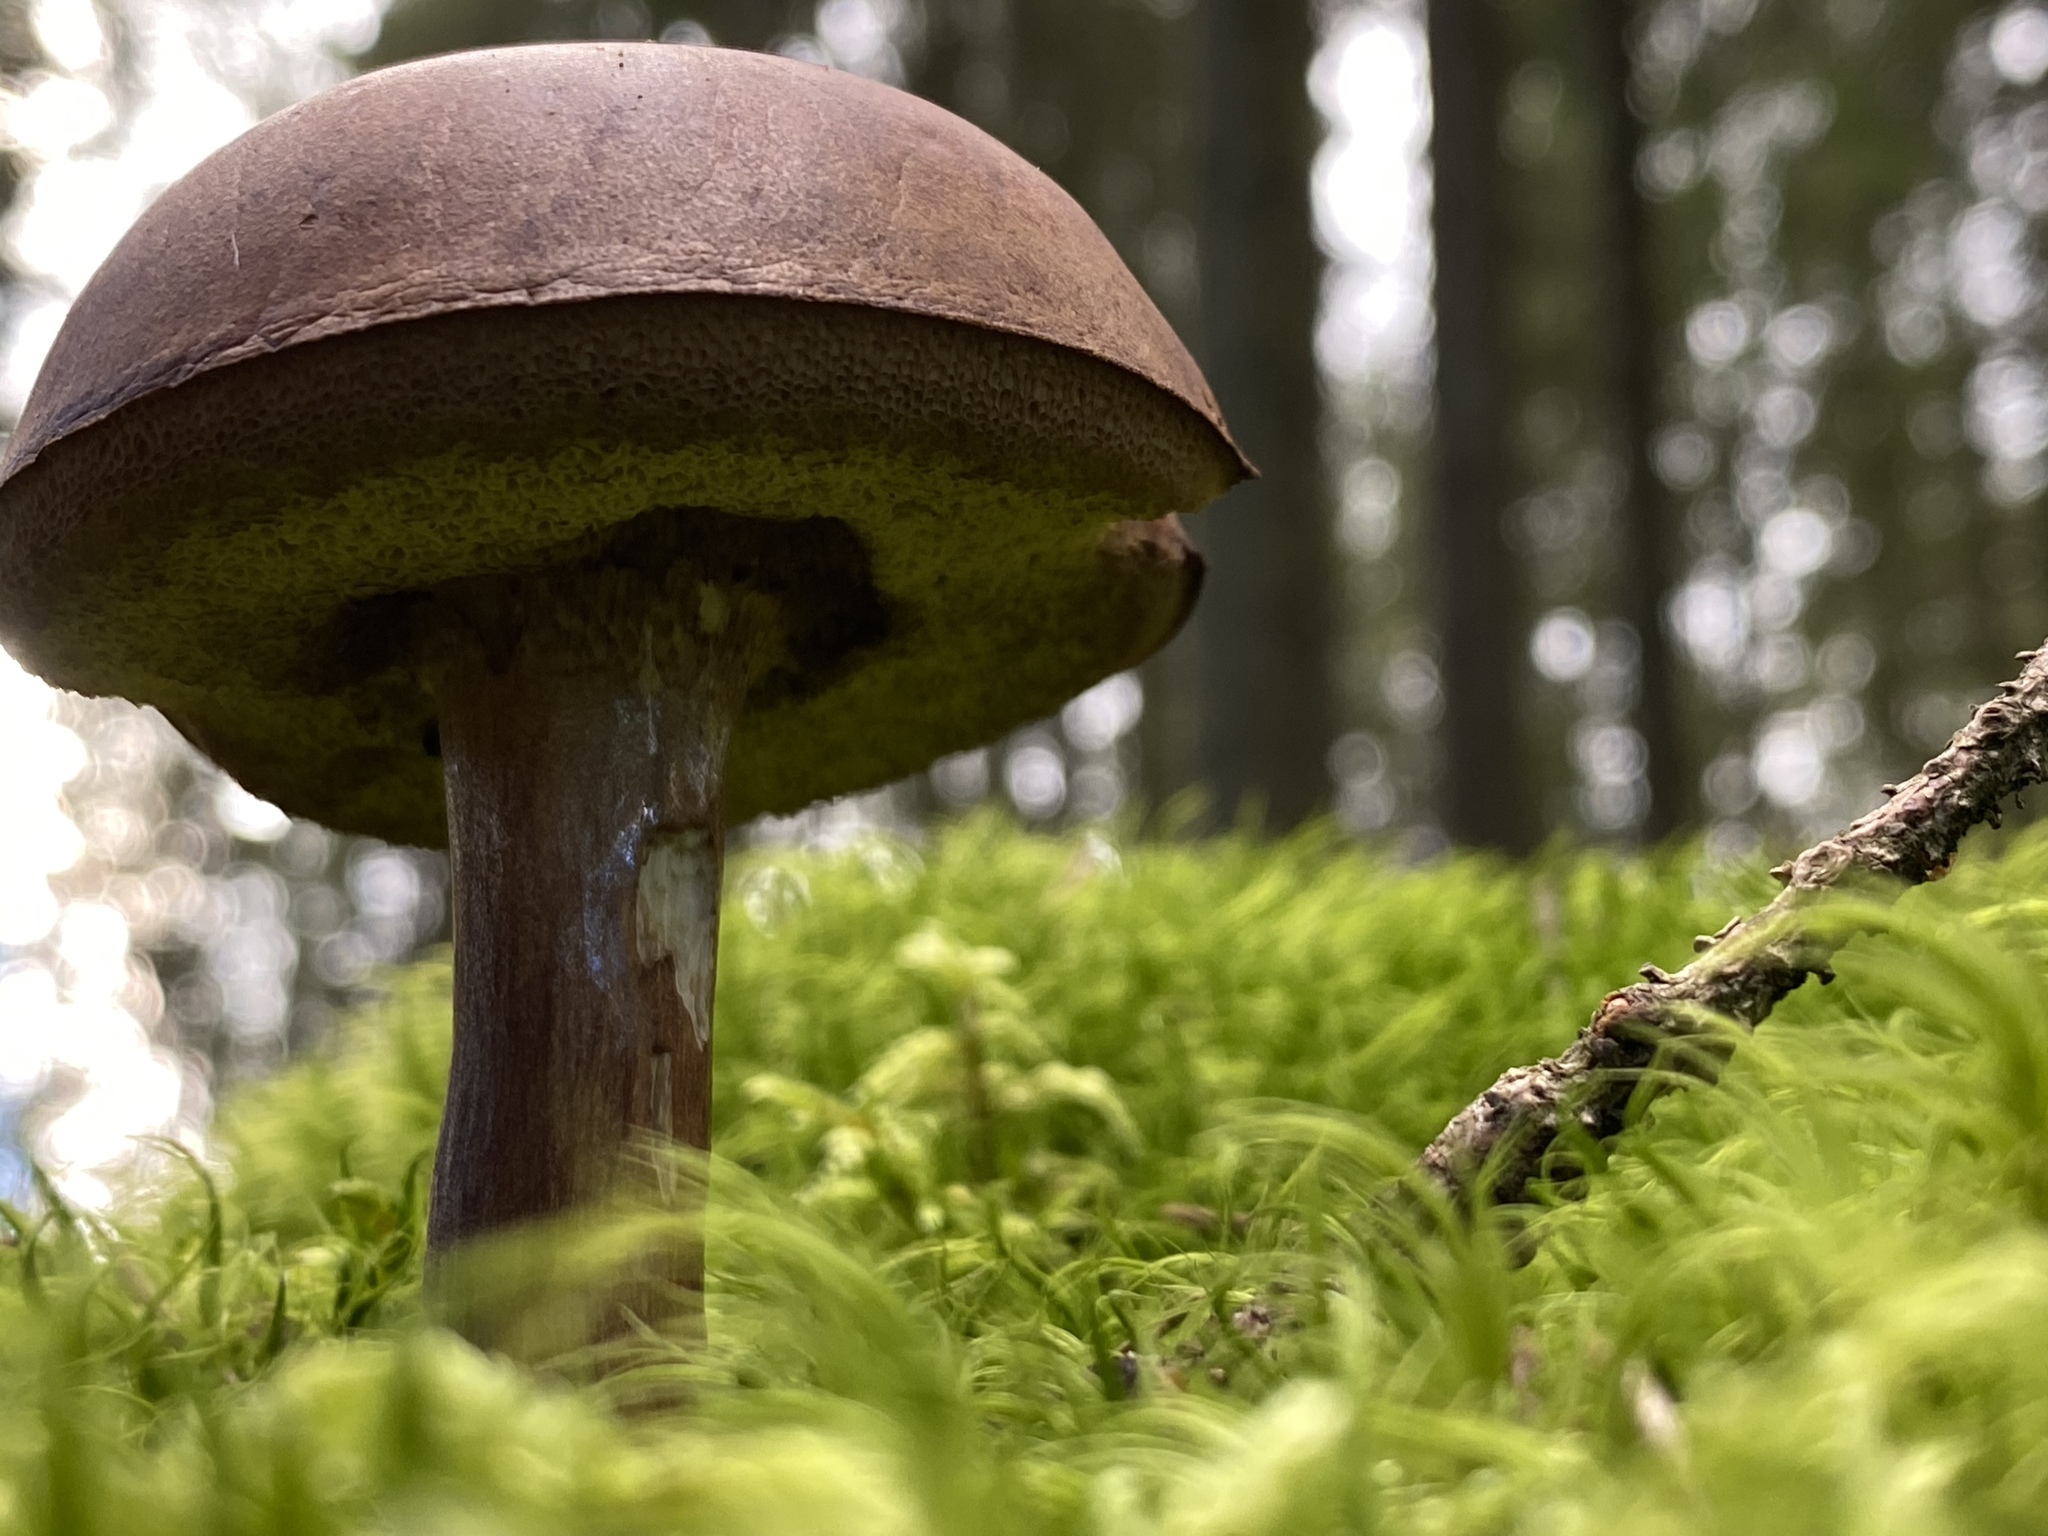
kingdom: Fungi
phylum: Basidiomycota
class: Agaricomycetes
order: Boletales
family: Boletaceae
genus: Imleria
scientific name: Imleria badia
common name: Bay bolete
